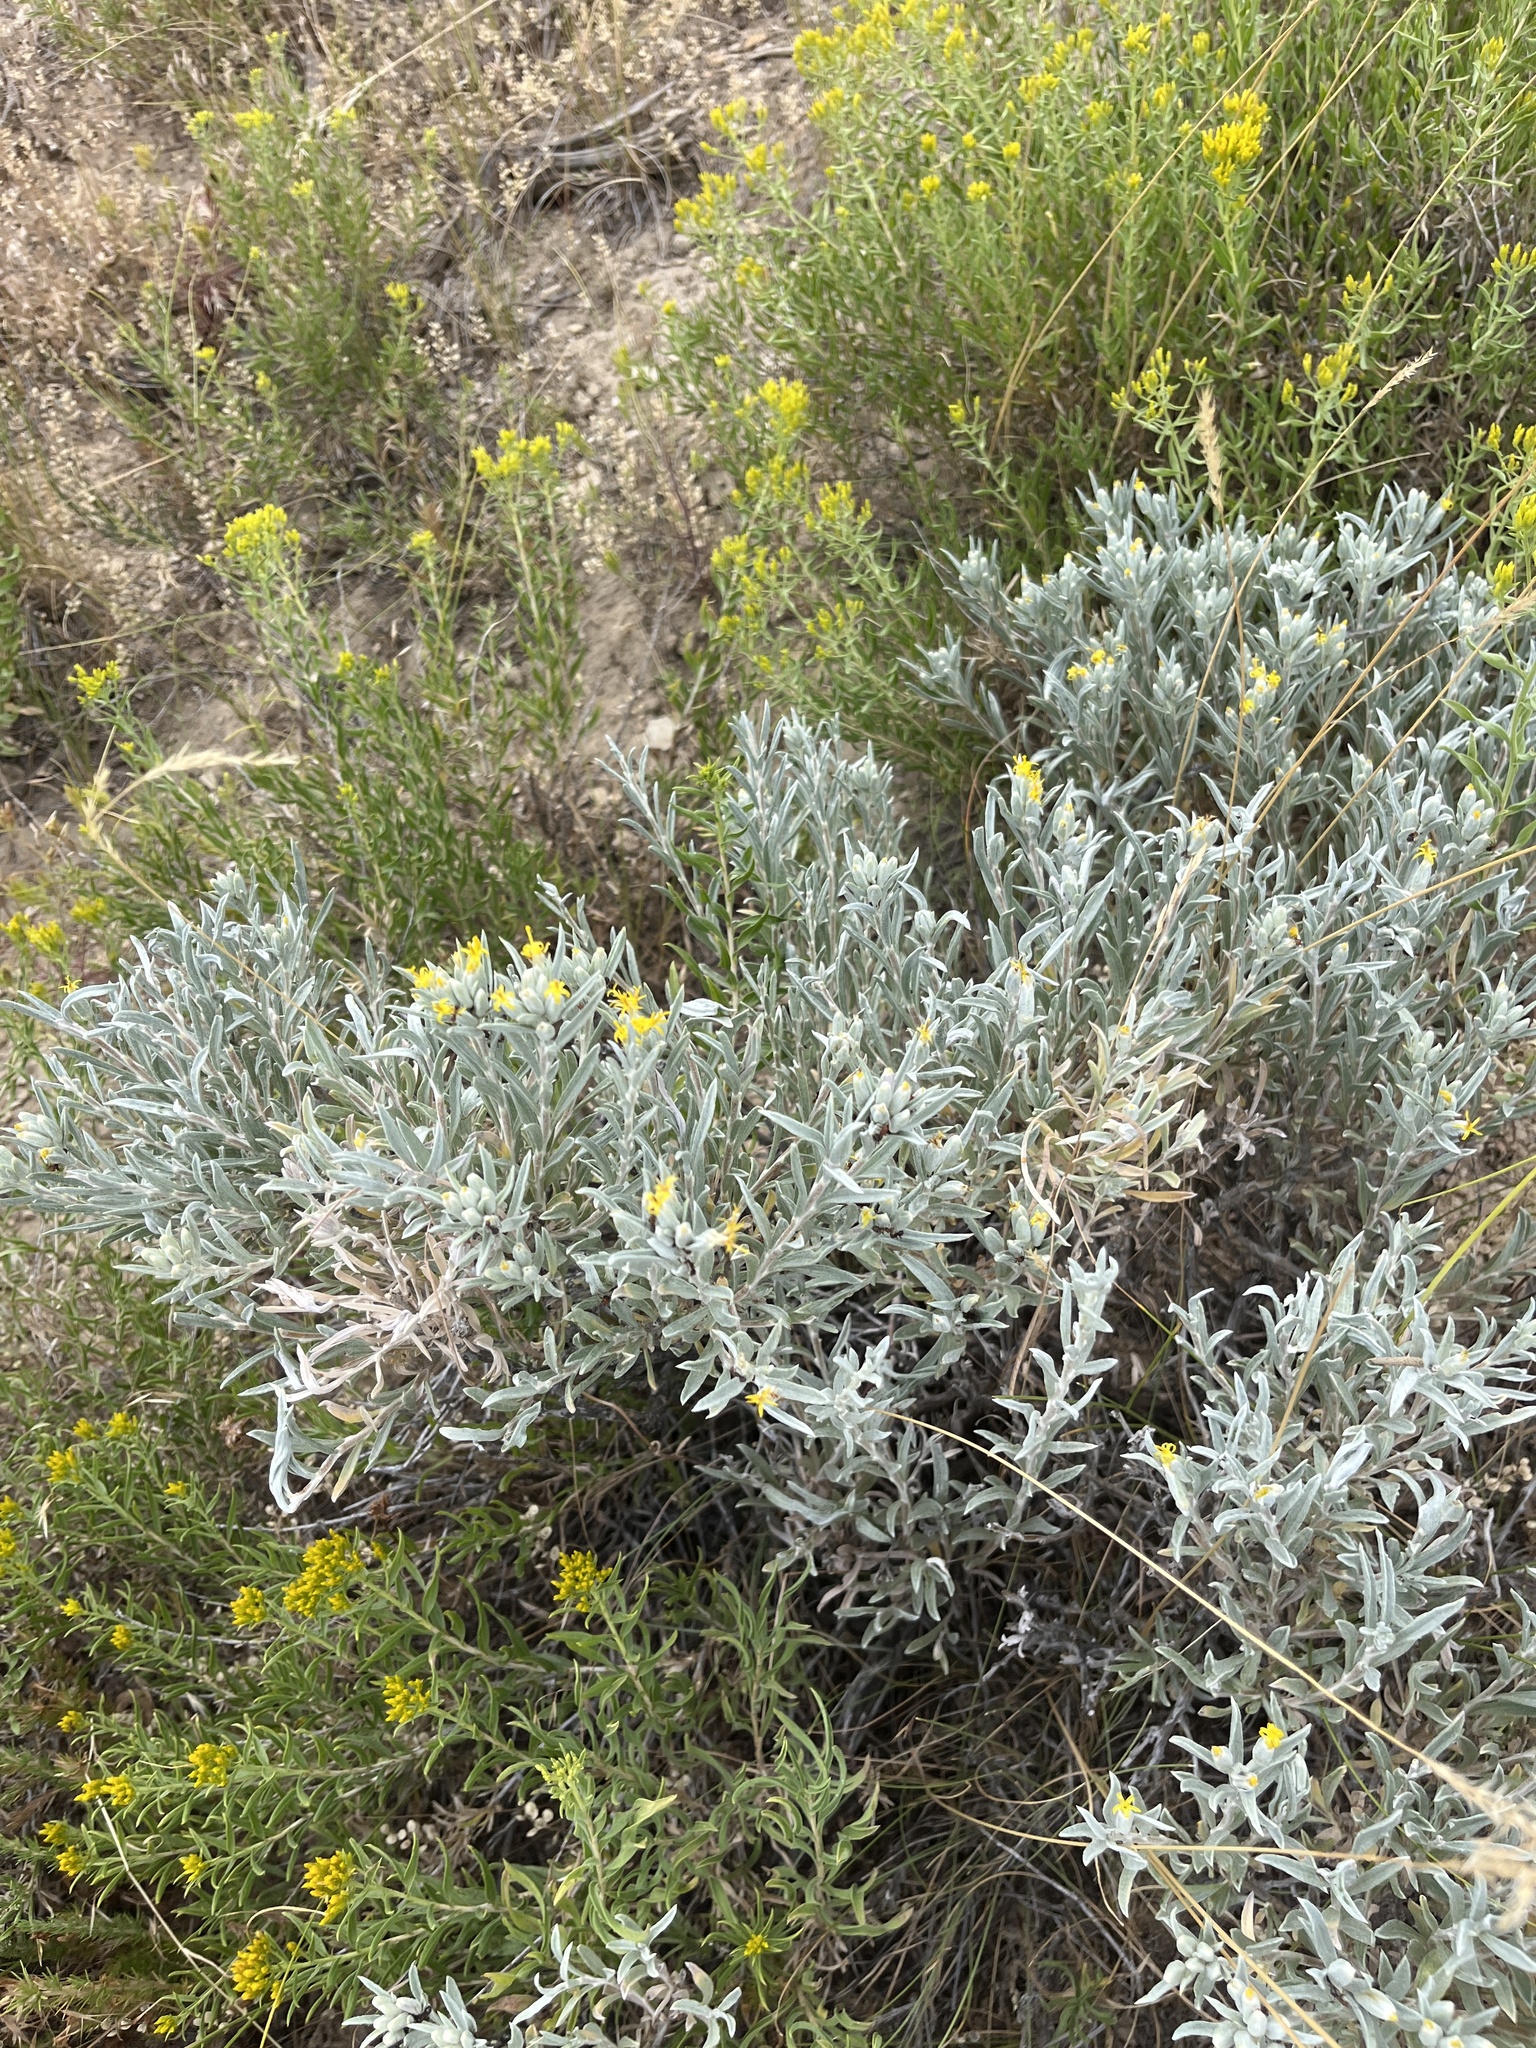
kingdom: Plantae
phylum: Tracheophyta
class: Magnoliopsida
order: Asterales
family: Asteraceae
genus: Tetradymia
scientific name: Tetradymia canescens
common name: Spineless horsebrush
